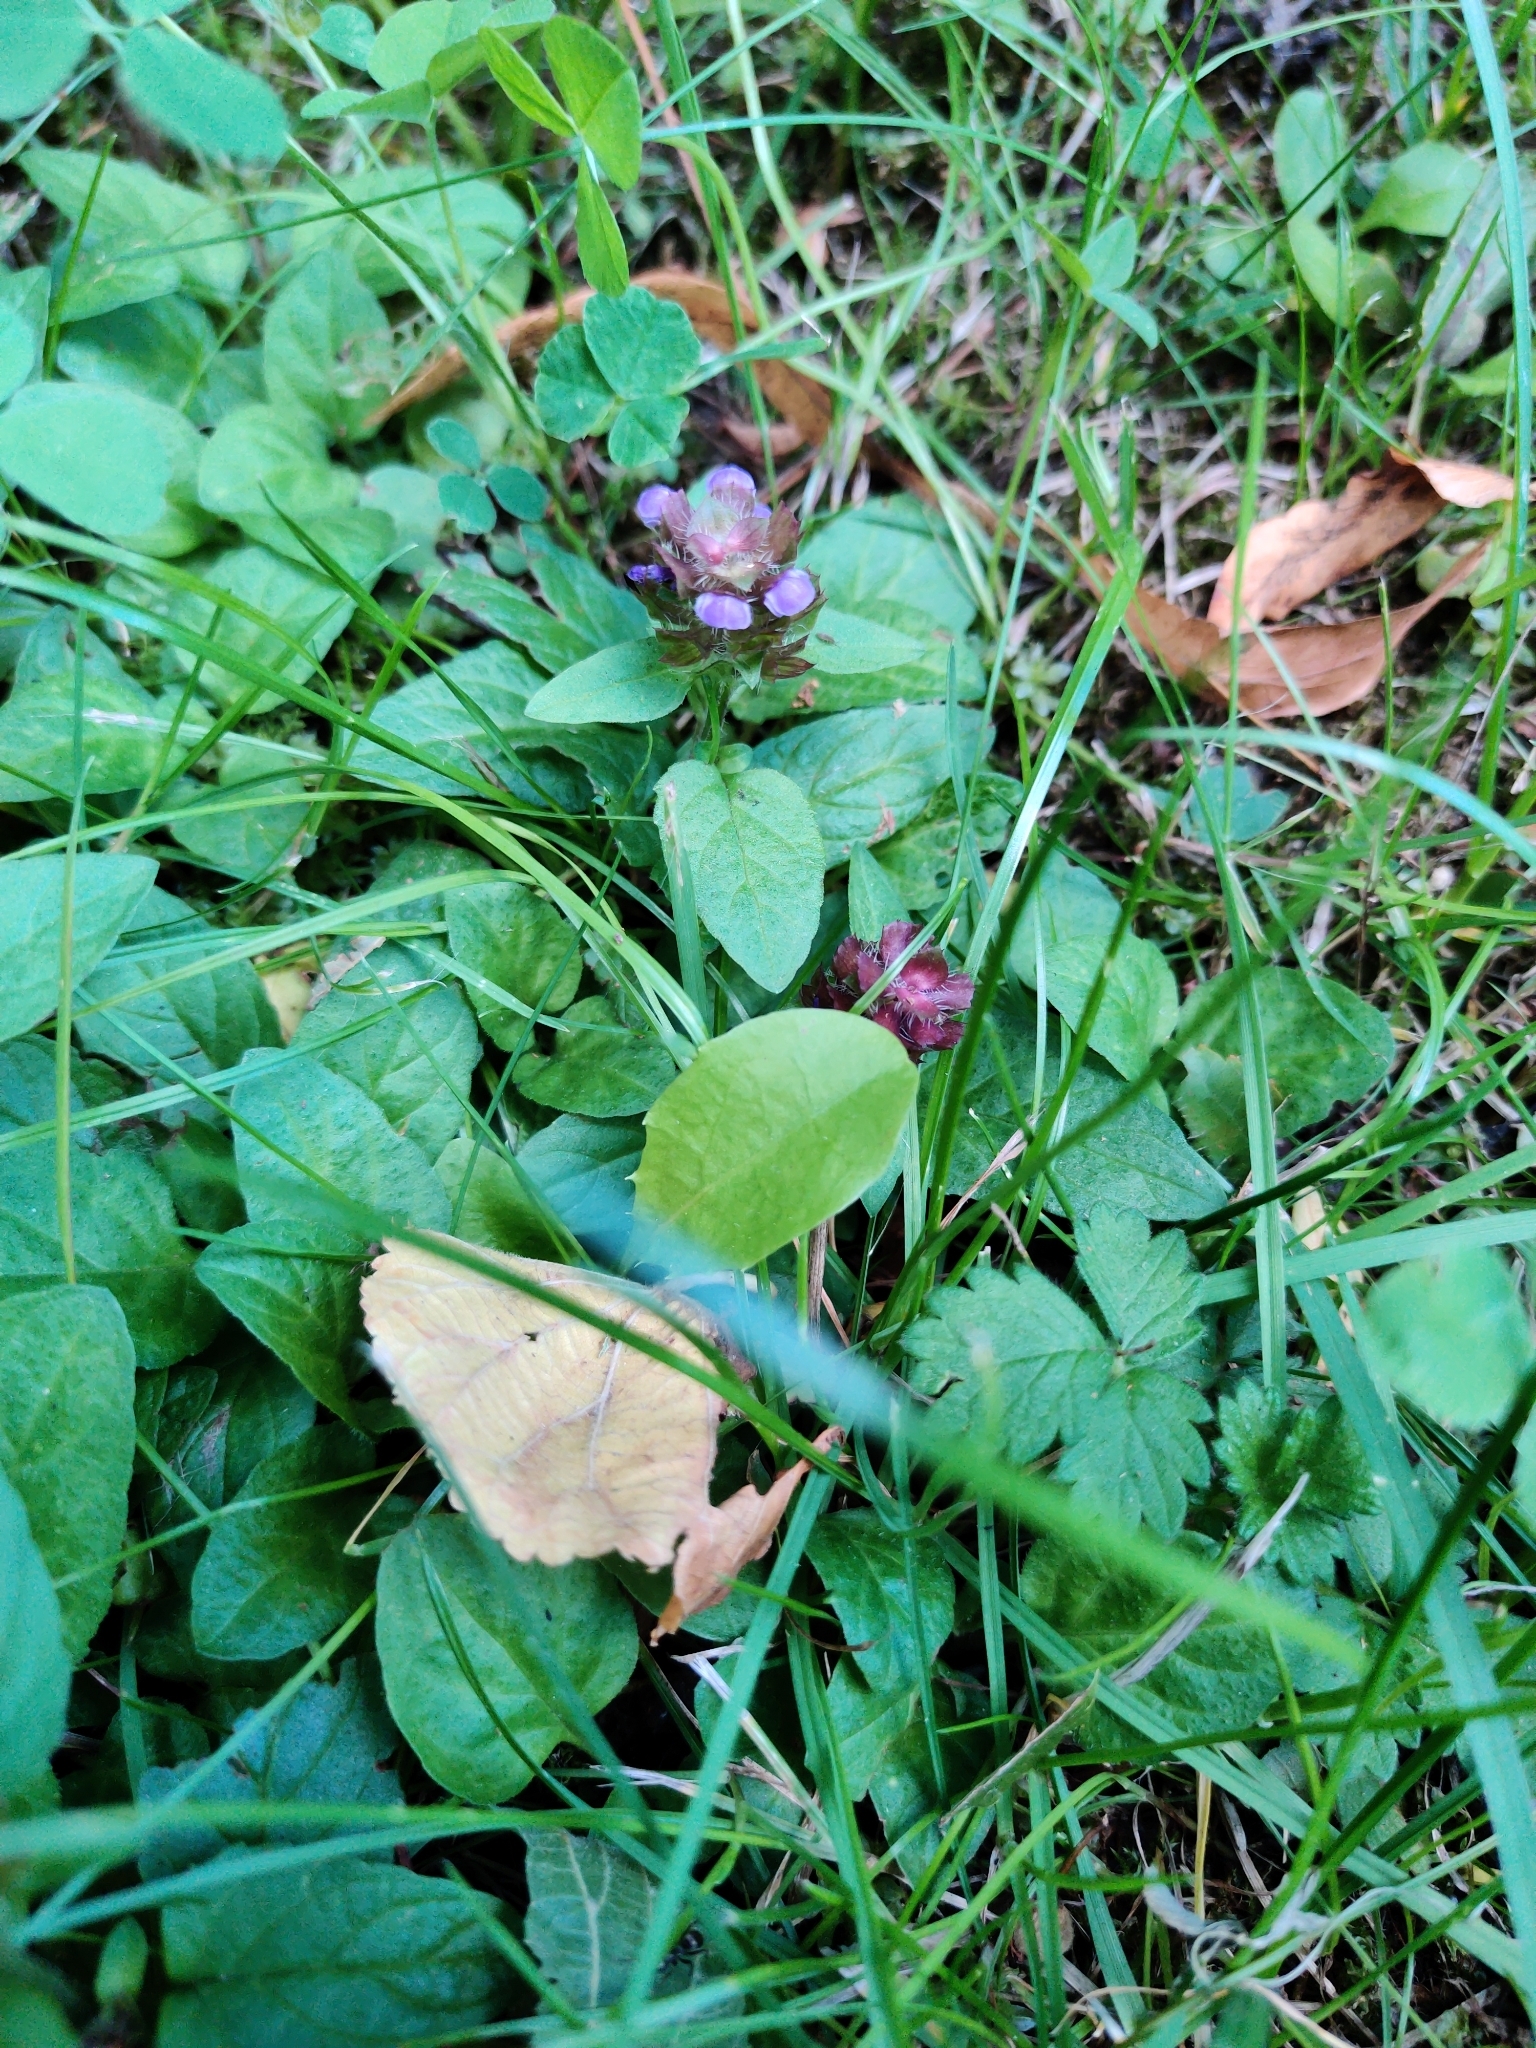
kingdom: Plantae
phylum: Tracheophyta
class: Magnoliopsida
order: Lamiales
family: Lamiaceae
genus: Prunella
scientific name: Prunella vulgaris
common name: Heal-all
